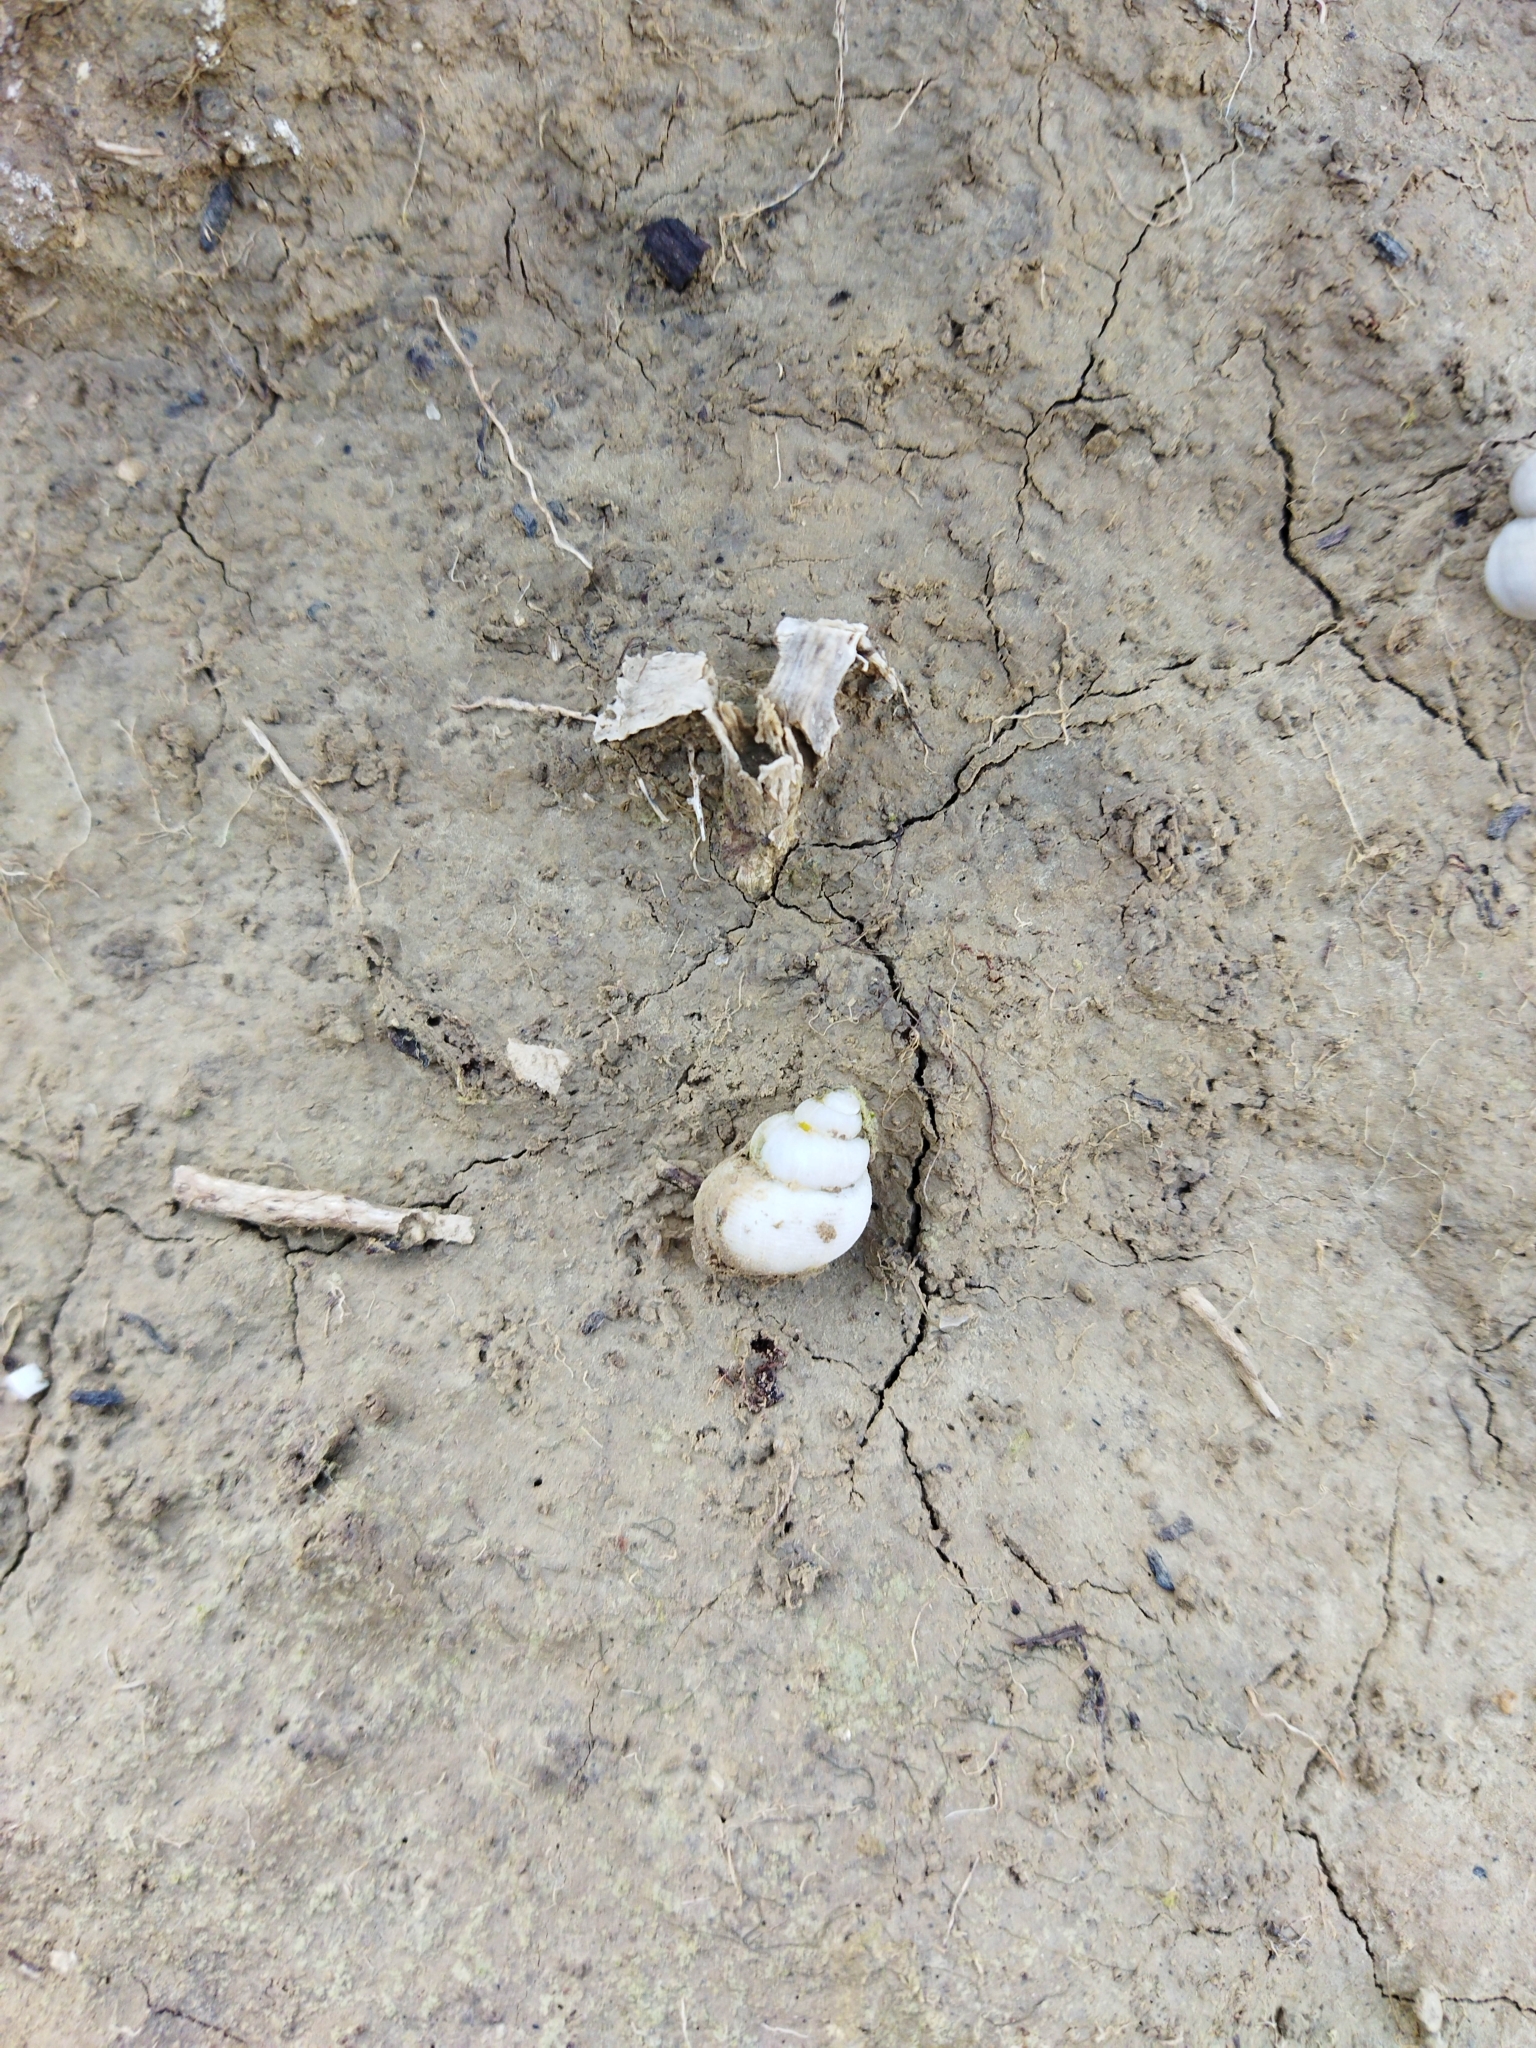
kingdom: Animalia
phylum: Mollusca
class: Gastropoda
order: Littorinimorpha
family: Pomatiidae
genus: Pomatias
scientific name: Pomatias elegans
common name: Red-mouthed snail
